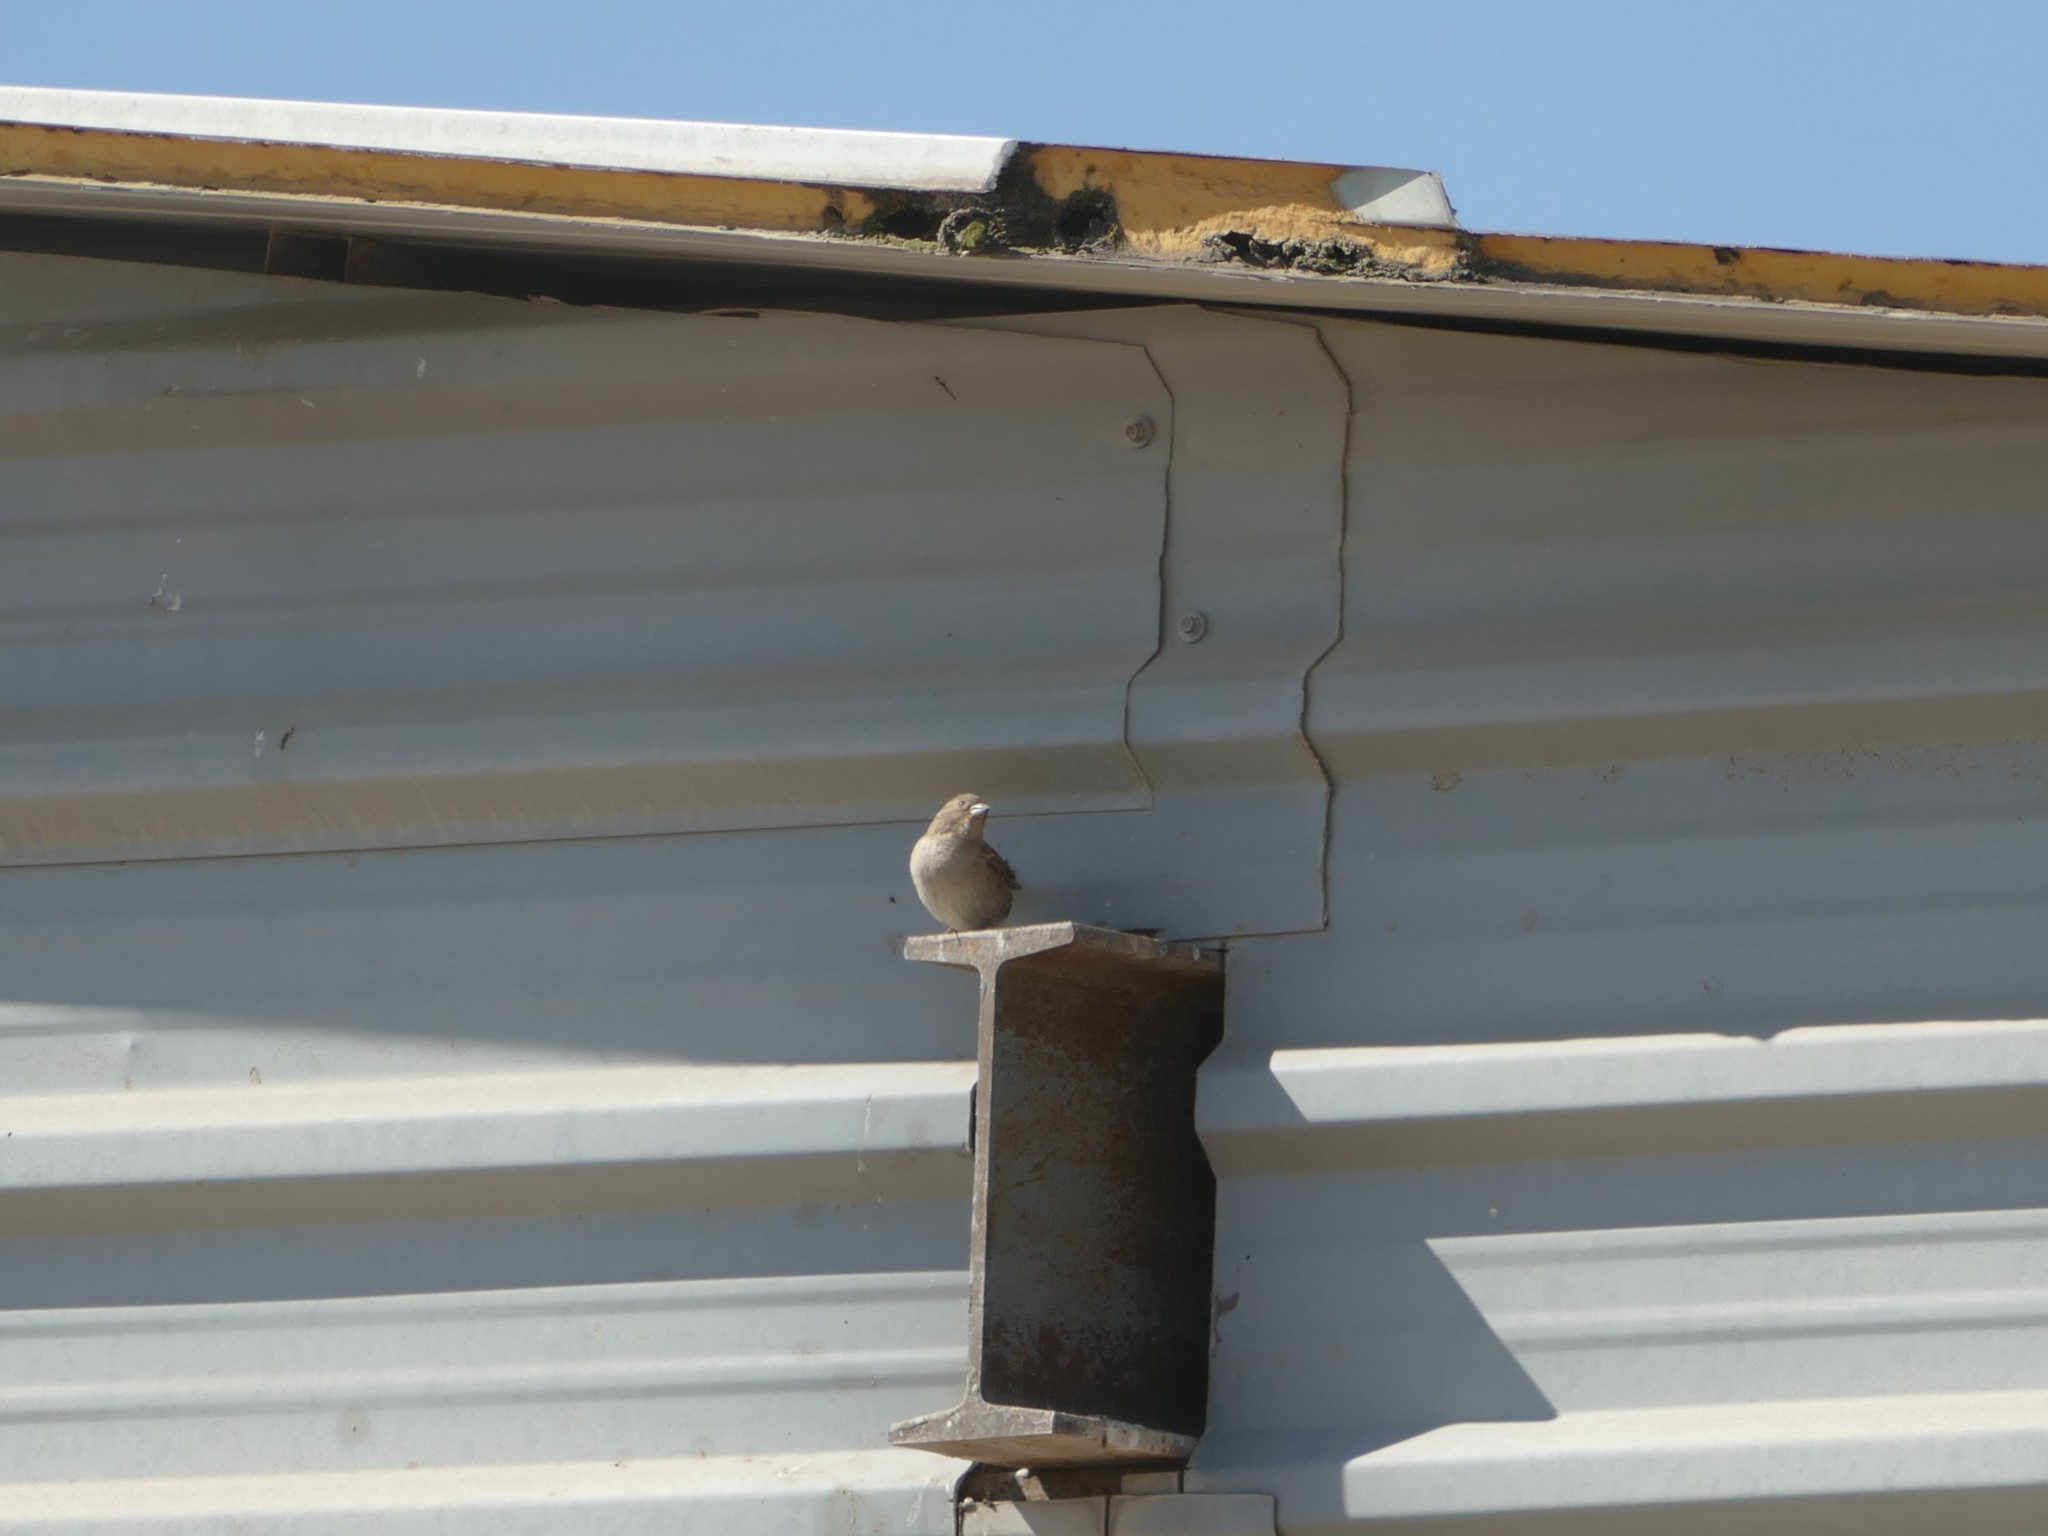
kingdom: Animalia
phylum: Chordata
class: Aves
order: Passeriformes
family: Passeridae
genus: Passer
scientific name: Passer domesticus
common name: House sparrow
